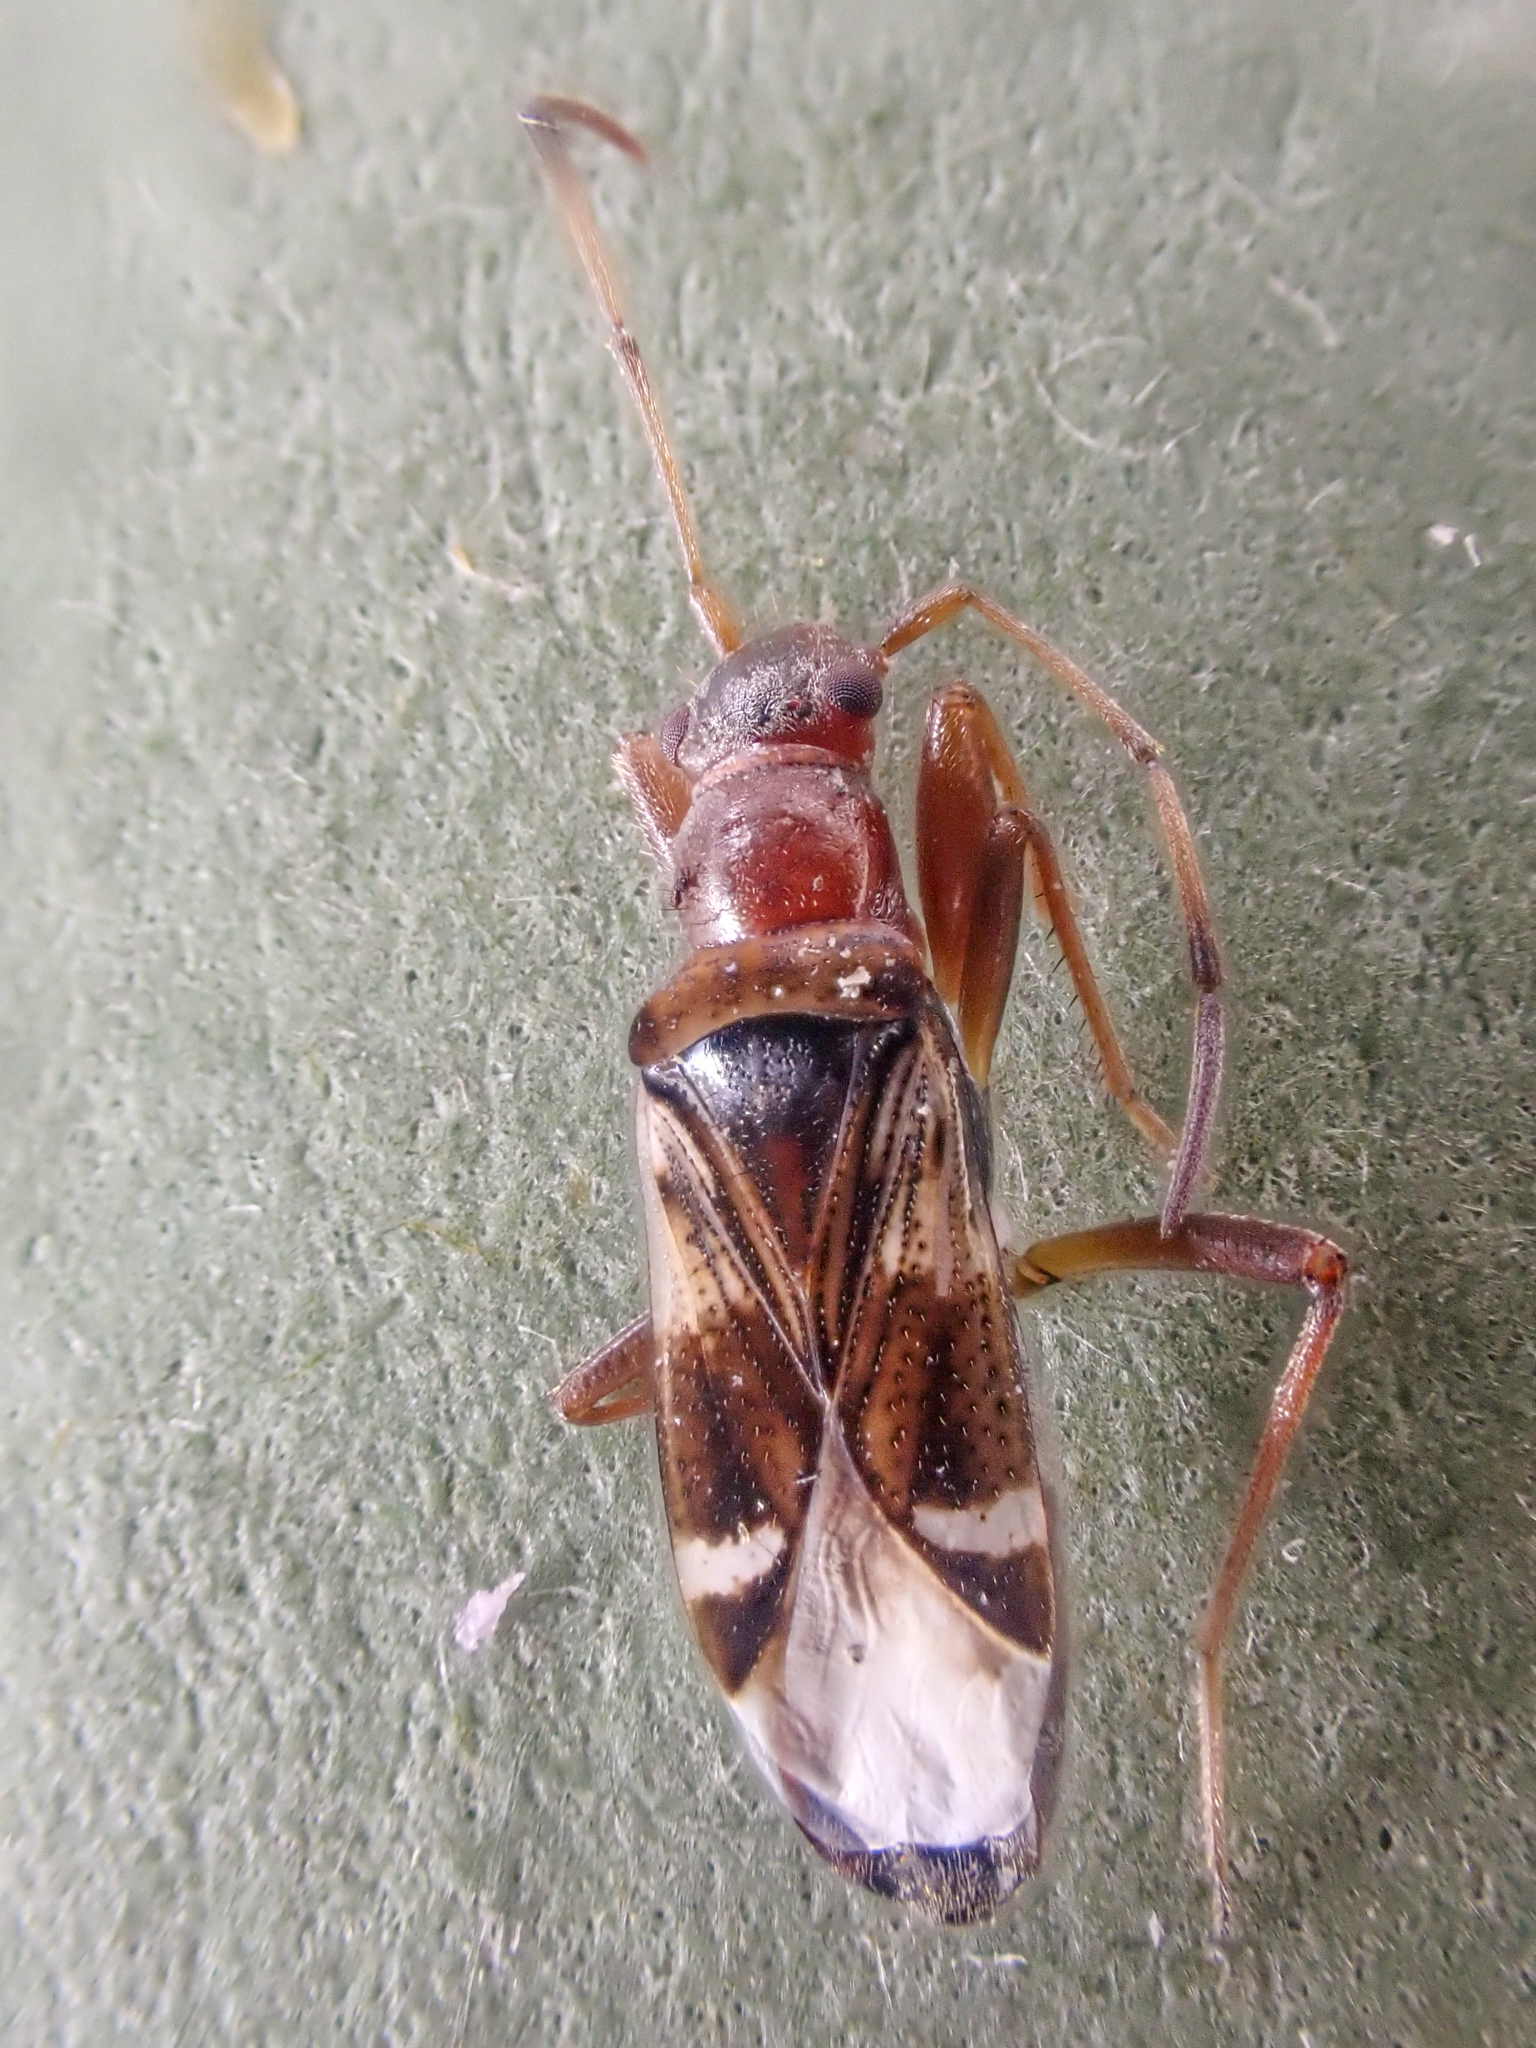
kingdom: Animalia
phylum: Arthropoda
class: Insecta
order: Hemiptera
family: Rhyparochromidae
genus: Slaterobius
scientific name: Slaterobius insignis
